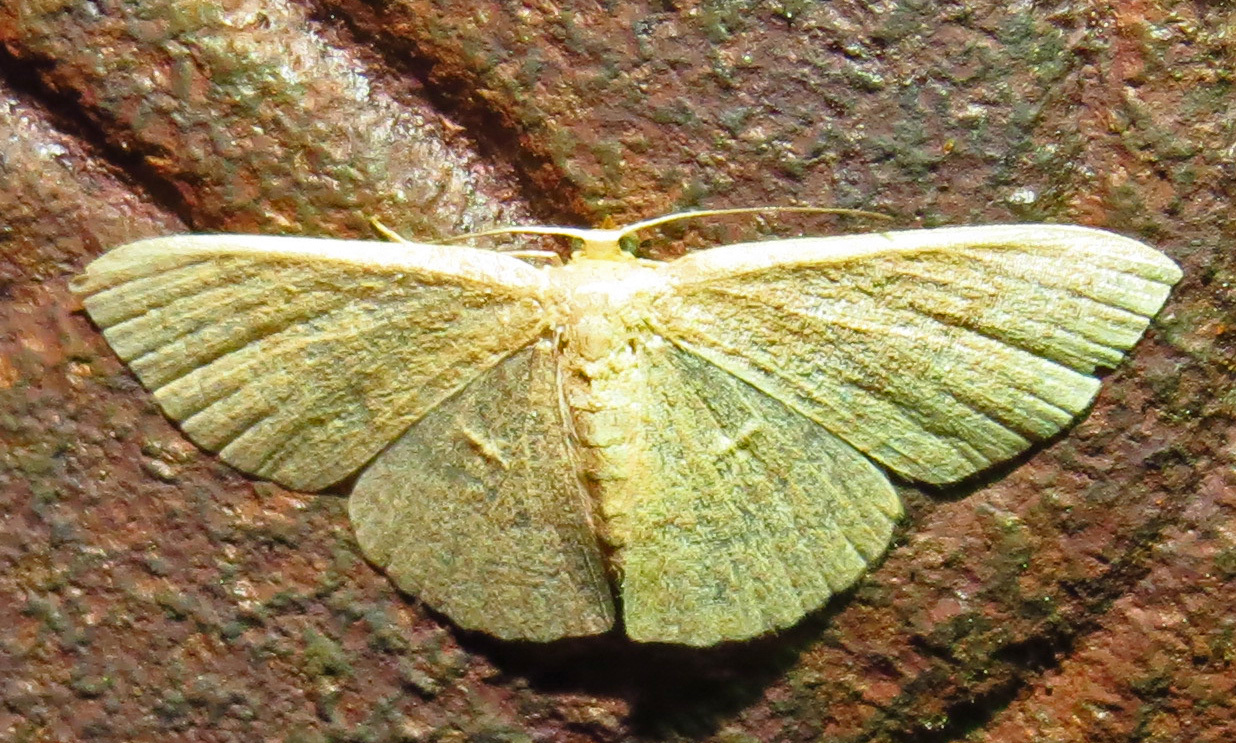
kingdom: Animalia
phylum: Arthropoda
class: Insecta
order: Lepidoptera
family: Geometridae
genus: Pleuroprucha
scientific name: Pleuroprucha insulsaria
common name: Common tan wave
